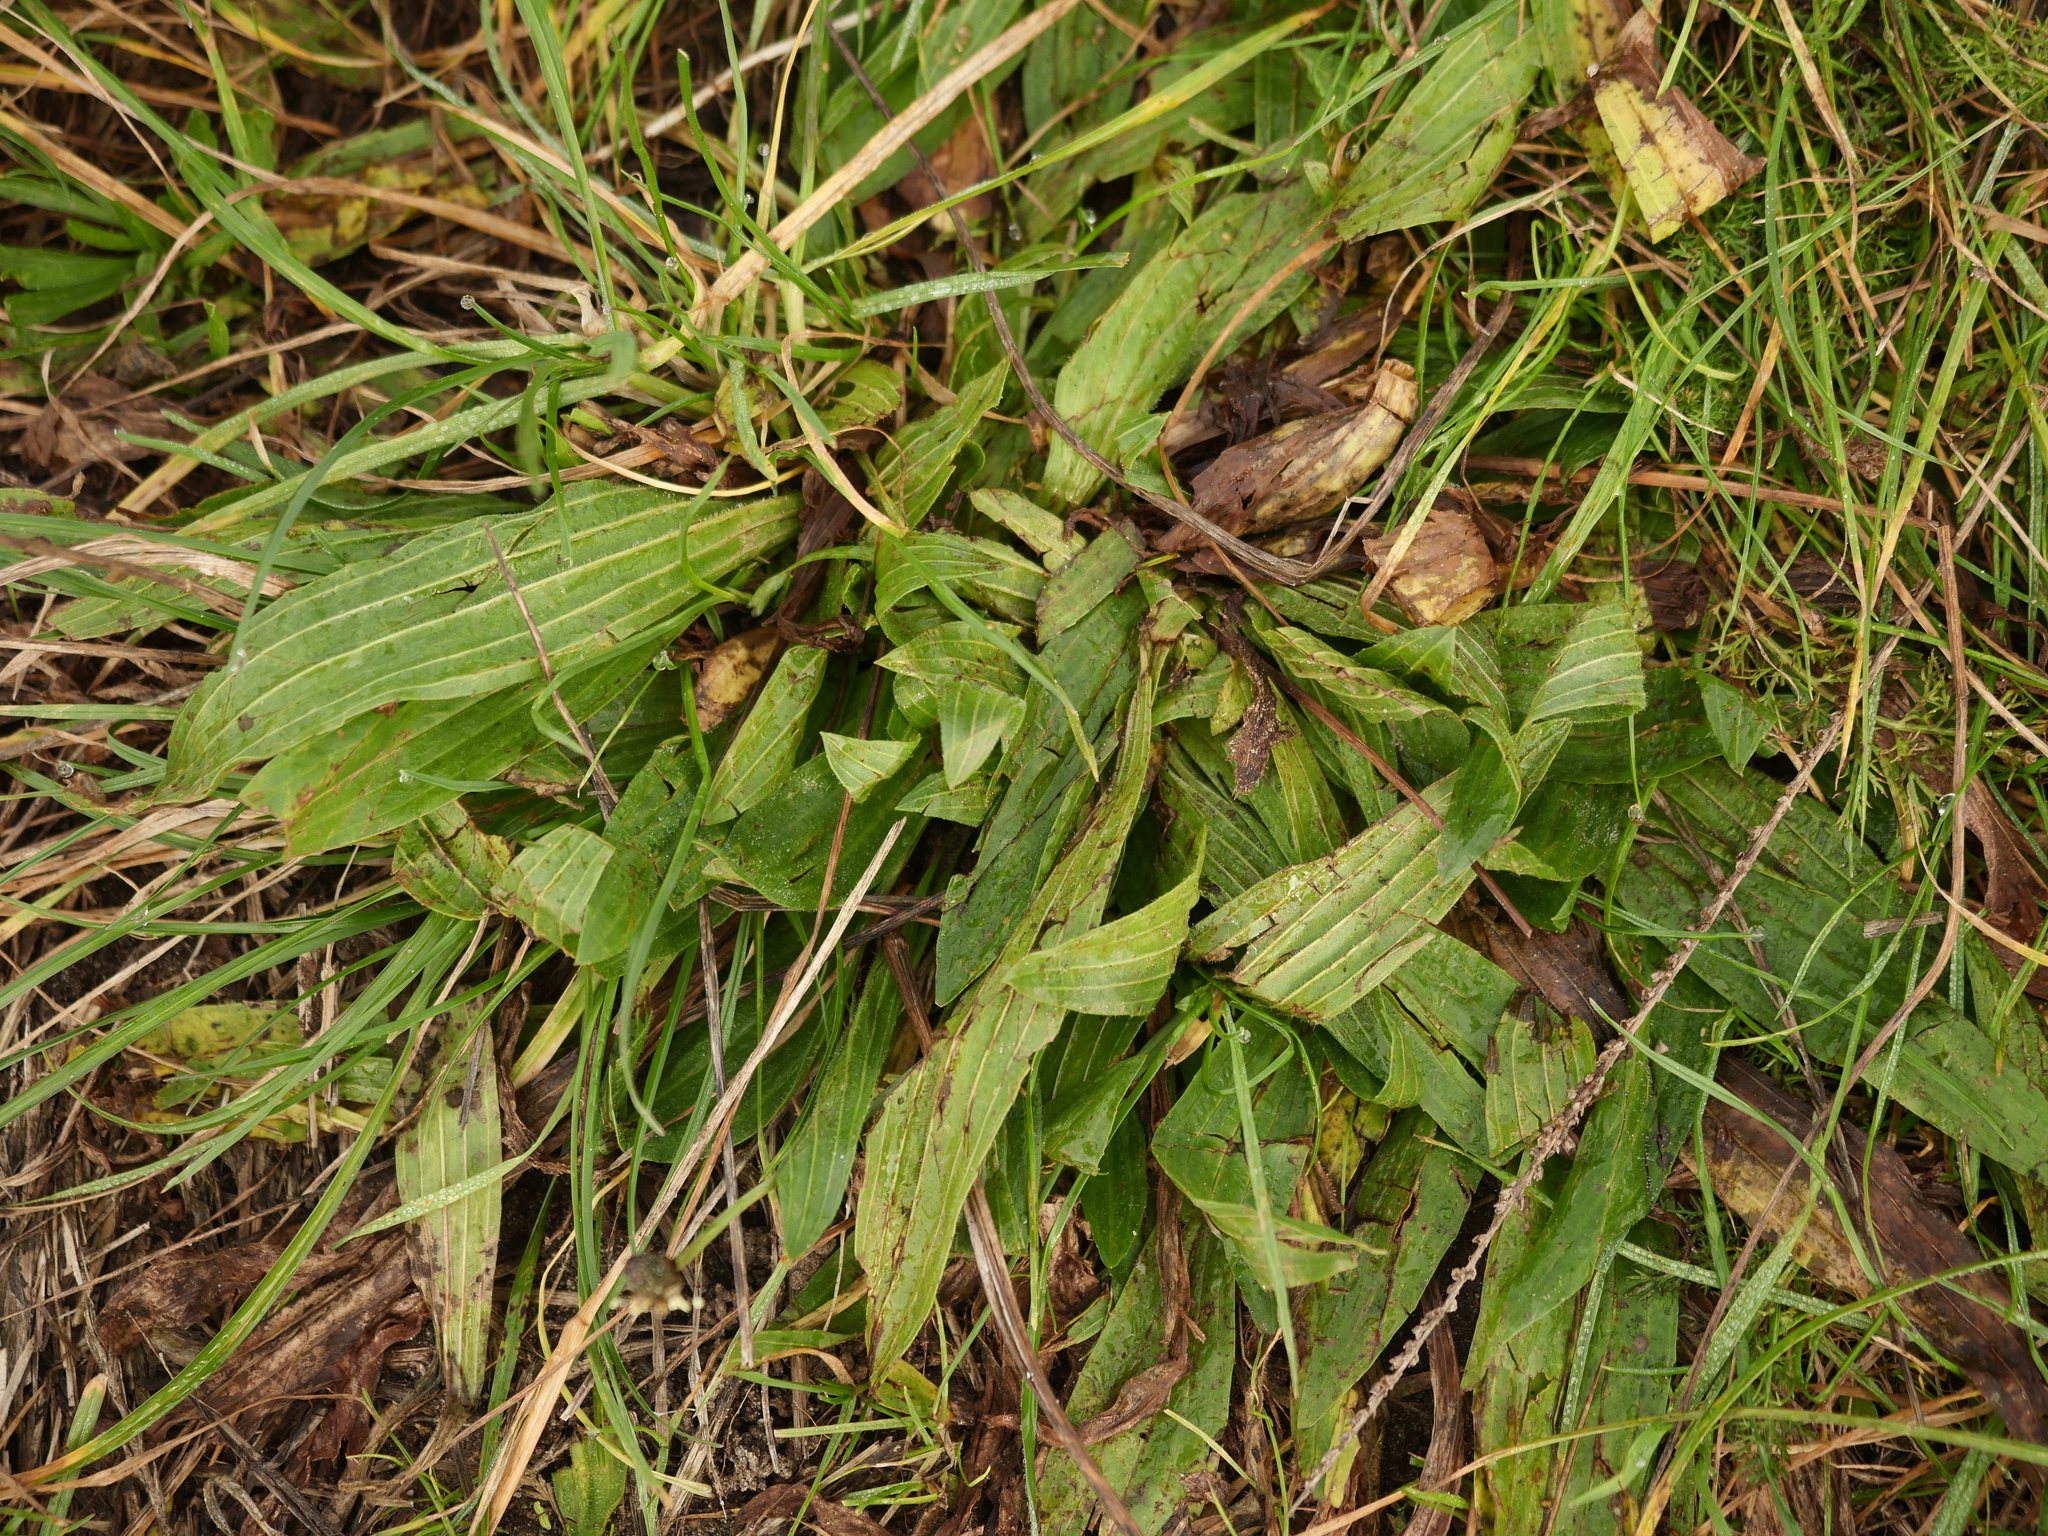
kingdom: Plantae
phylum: Tracheophyta
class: Magnoliopsida
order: Lamiales
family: Plantaginaceae
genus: Plantago
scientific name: Plantago lanceolata
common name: Ribwort plantain
